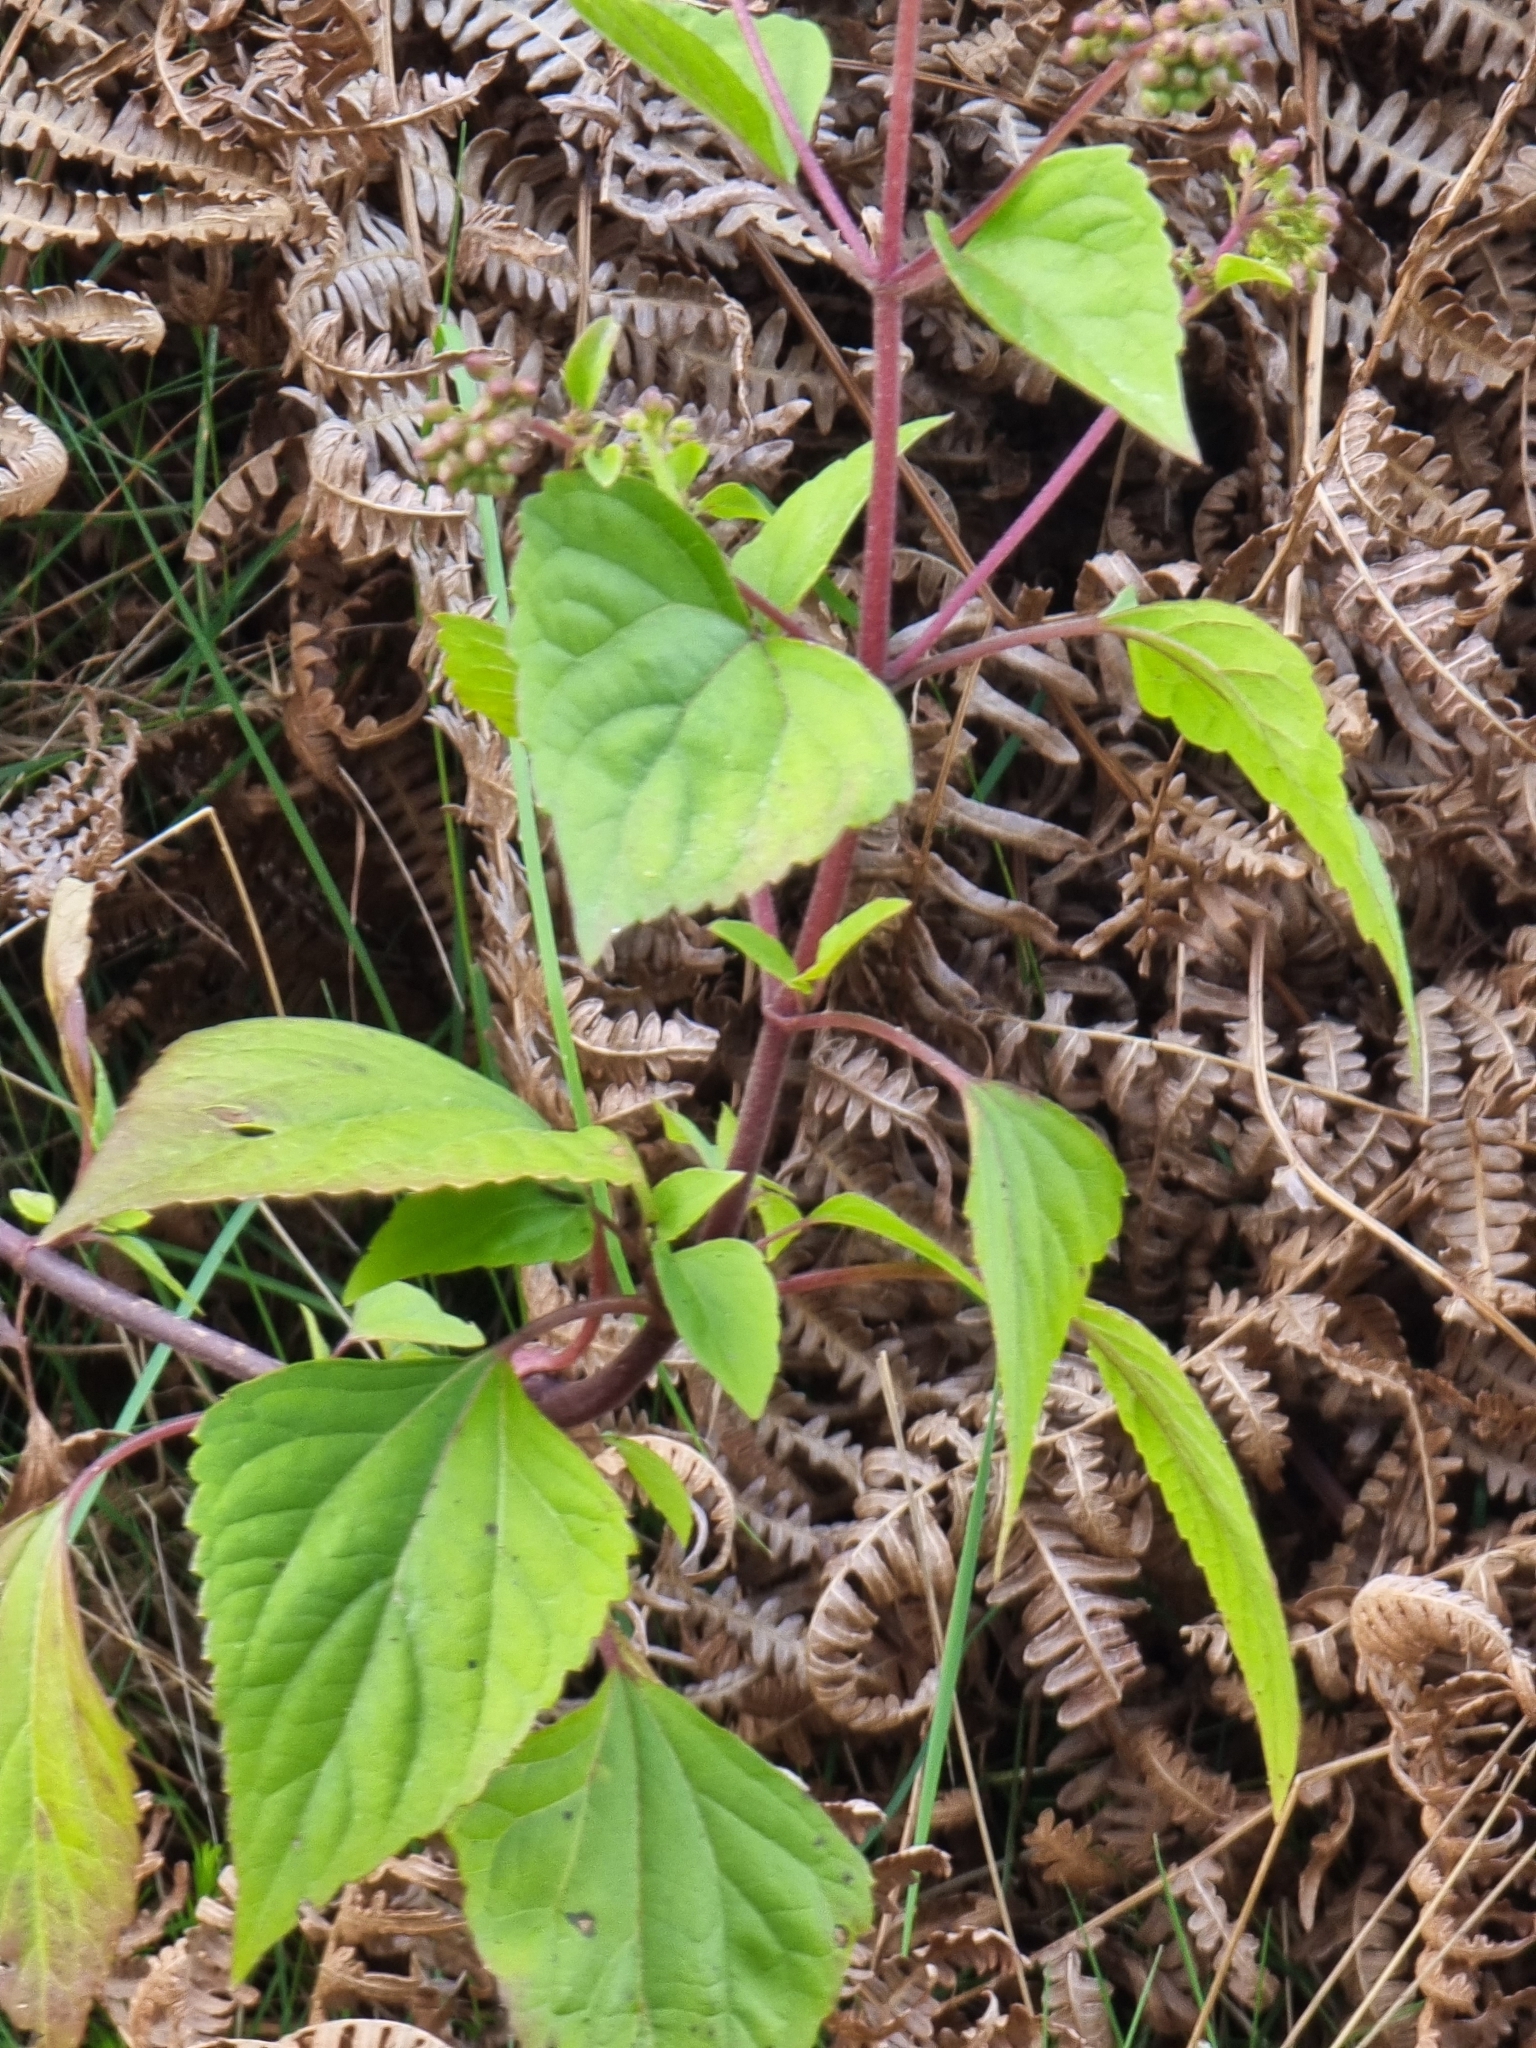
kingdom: Plantae
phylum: Tracheophyta
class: Magnoliopsida
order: Asterales
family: Asteraceae
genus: Ageratina
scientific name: Ageratina adenophora
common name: Sticky snakeroot
